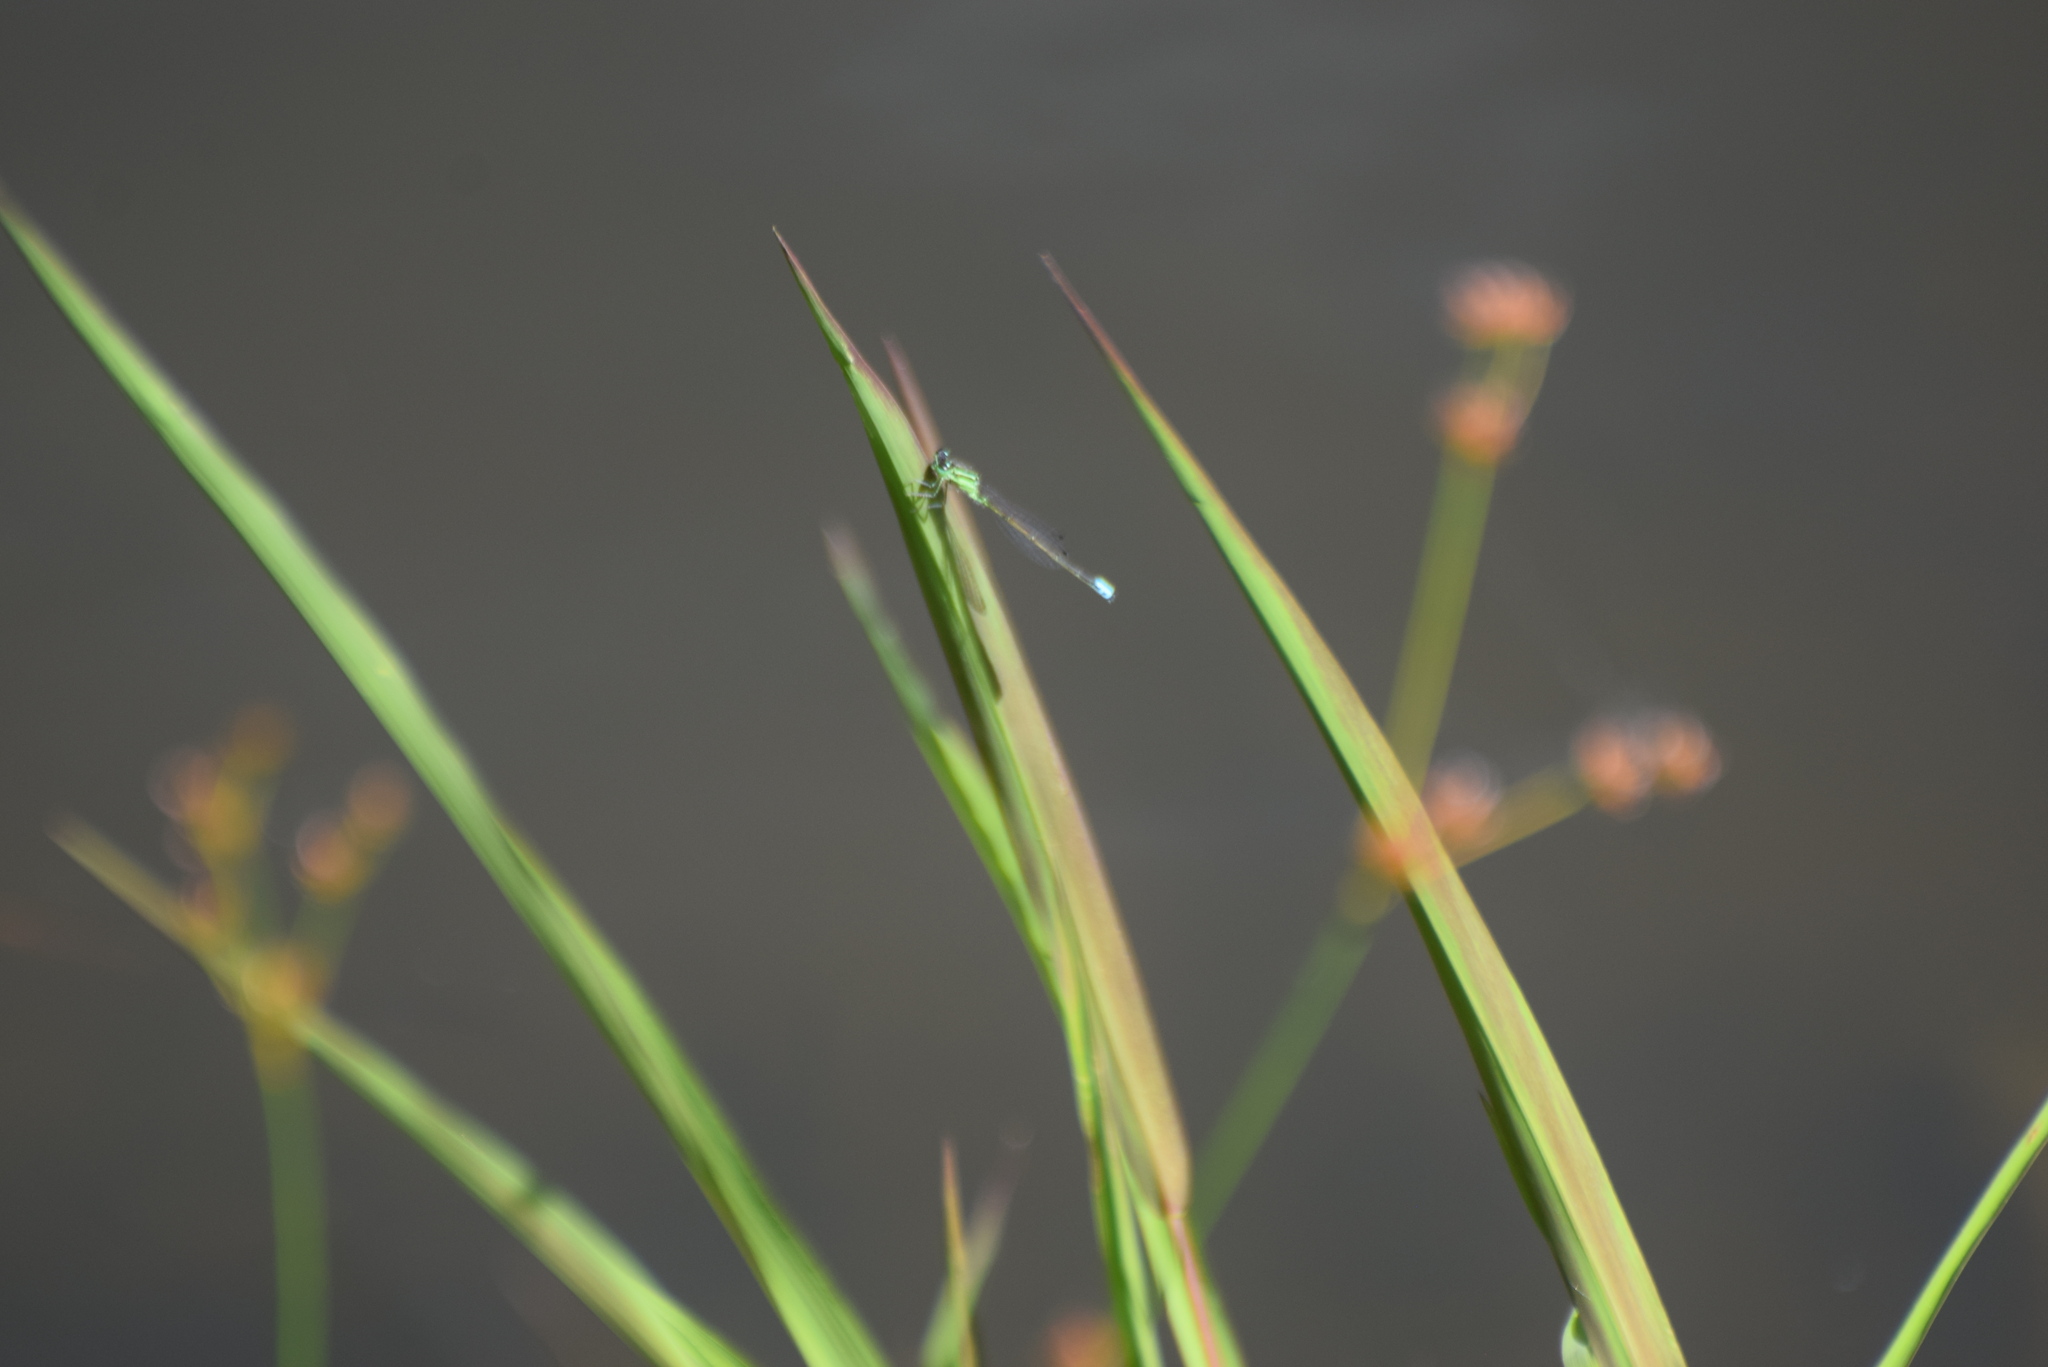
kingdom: Animalia
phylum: Arthropoda
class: Insecta
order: Odonata
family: Coenagrionidae
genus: Ischnura
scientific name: Ischnura verticalis
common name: Eastern forktail
